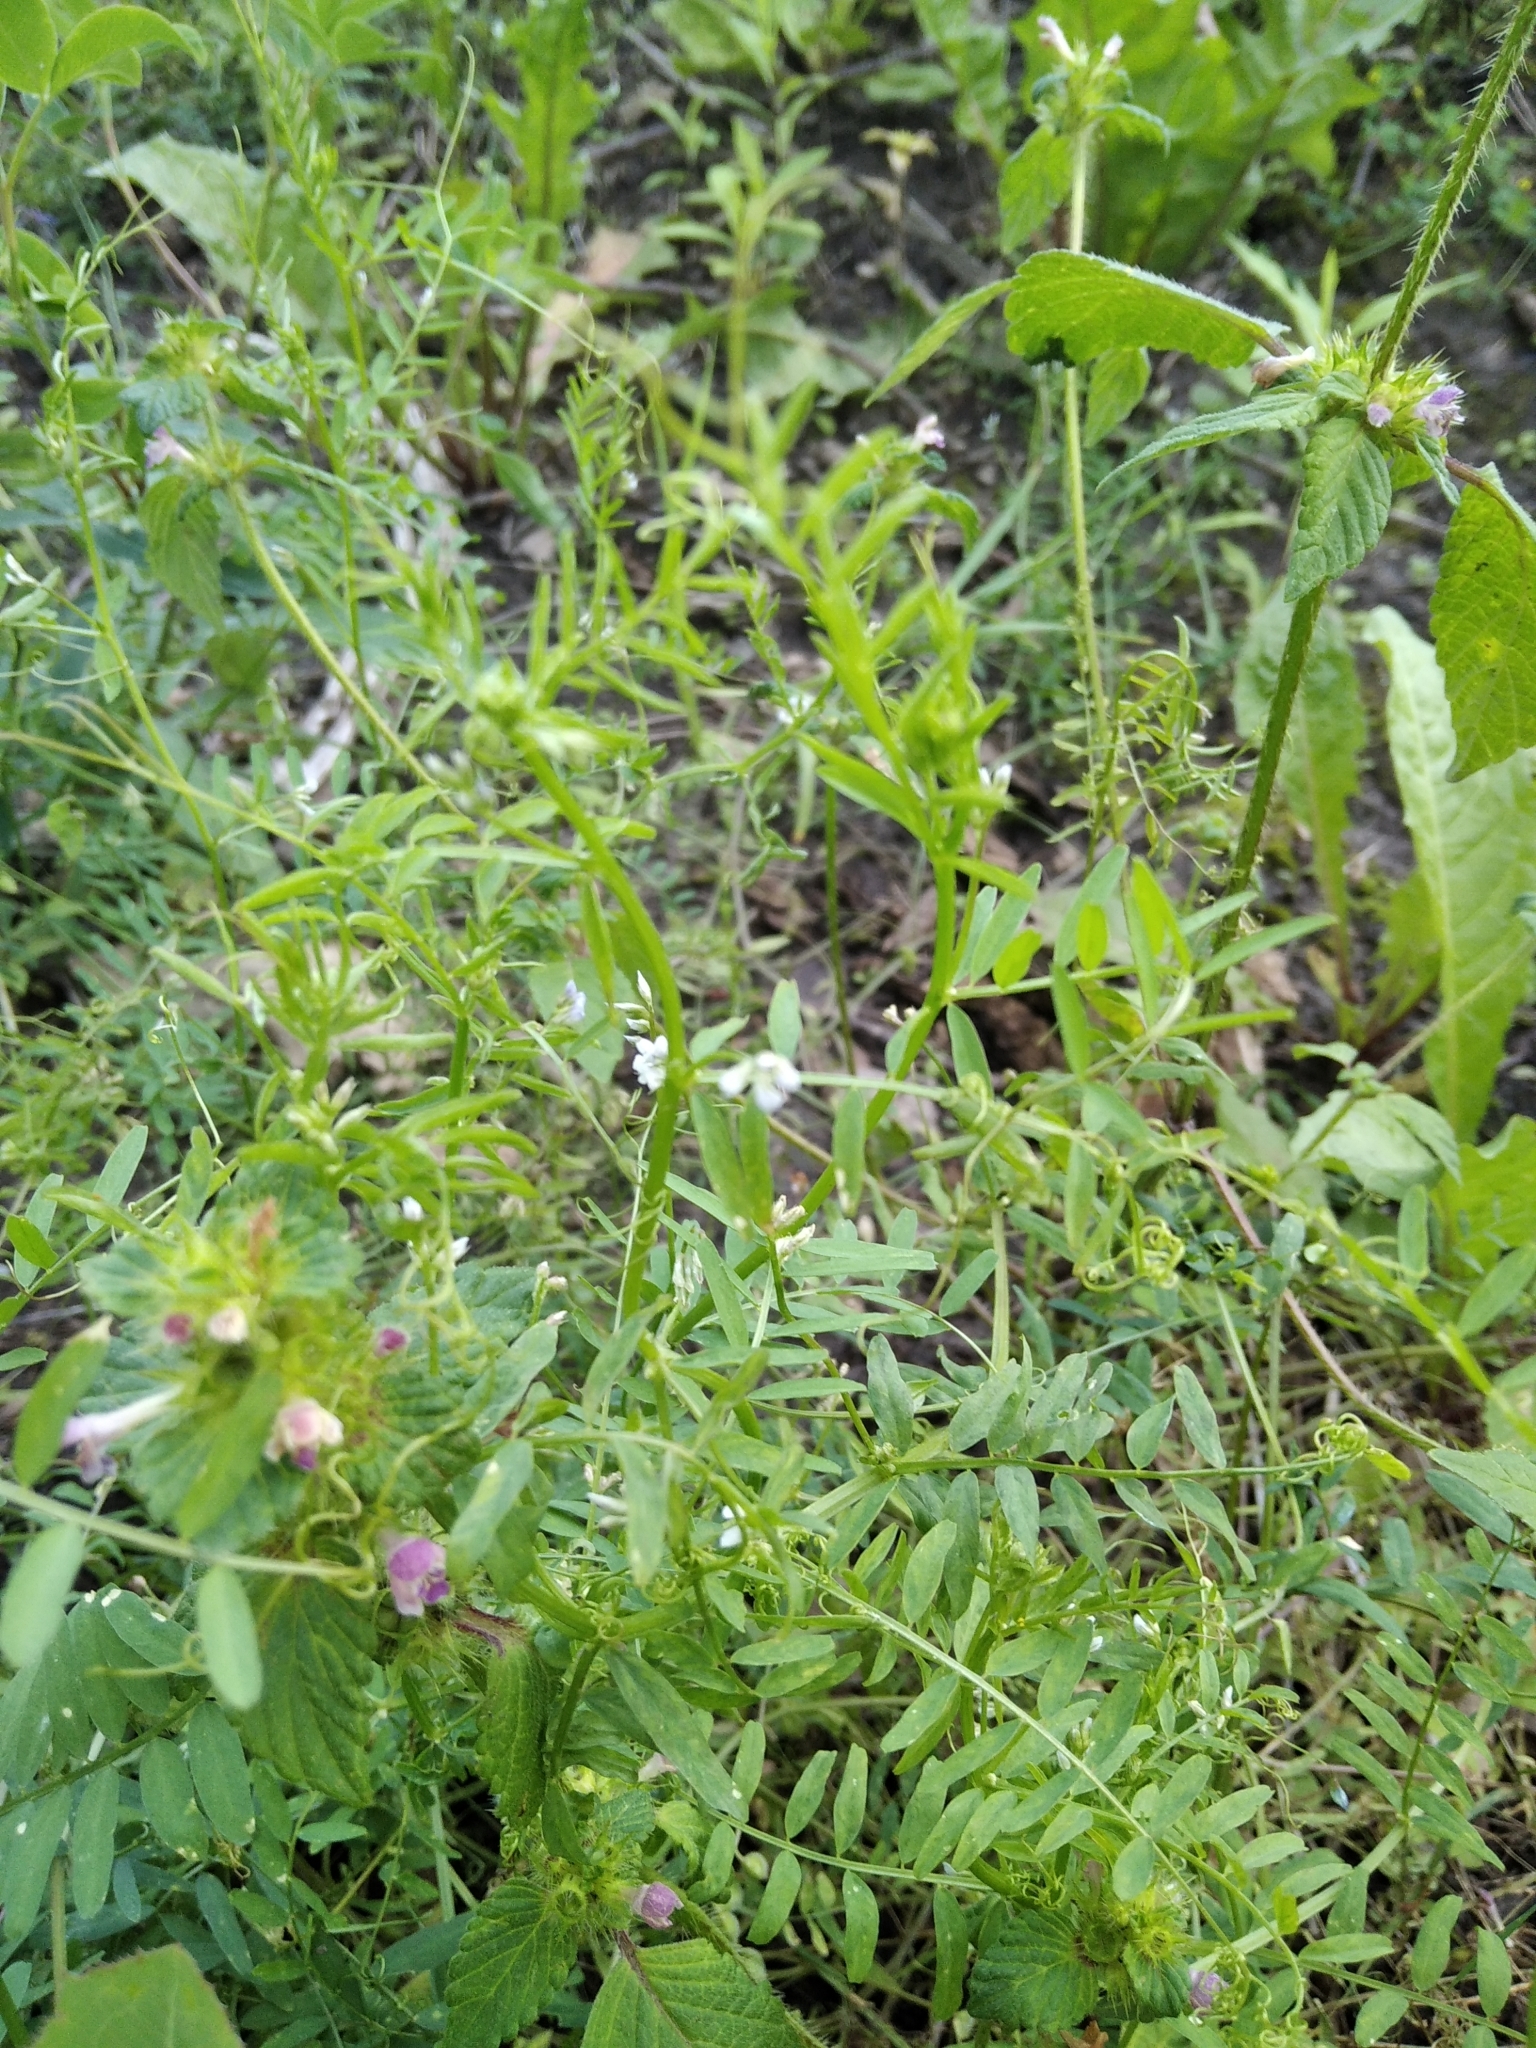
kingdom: Plantae
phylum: Tracheophyta
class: Magnoliopsida
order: Fabales
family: Fabaceae
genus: Vicia
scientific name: Vicia hirsuta
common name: Tiny vetch
